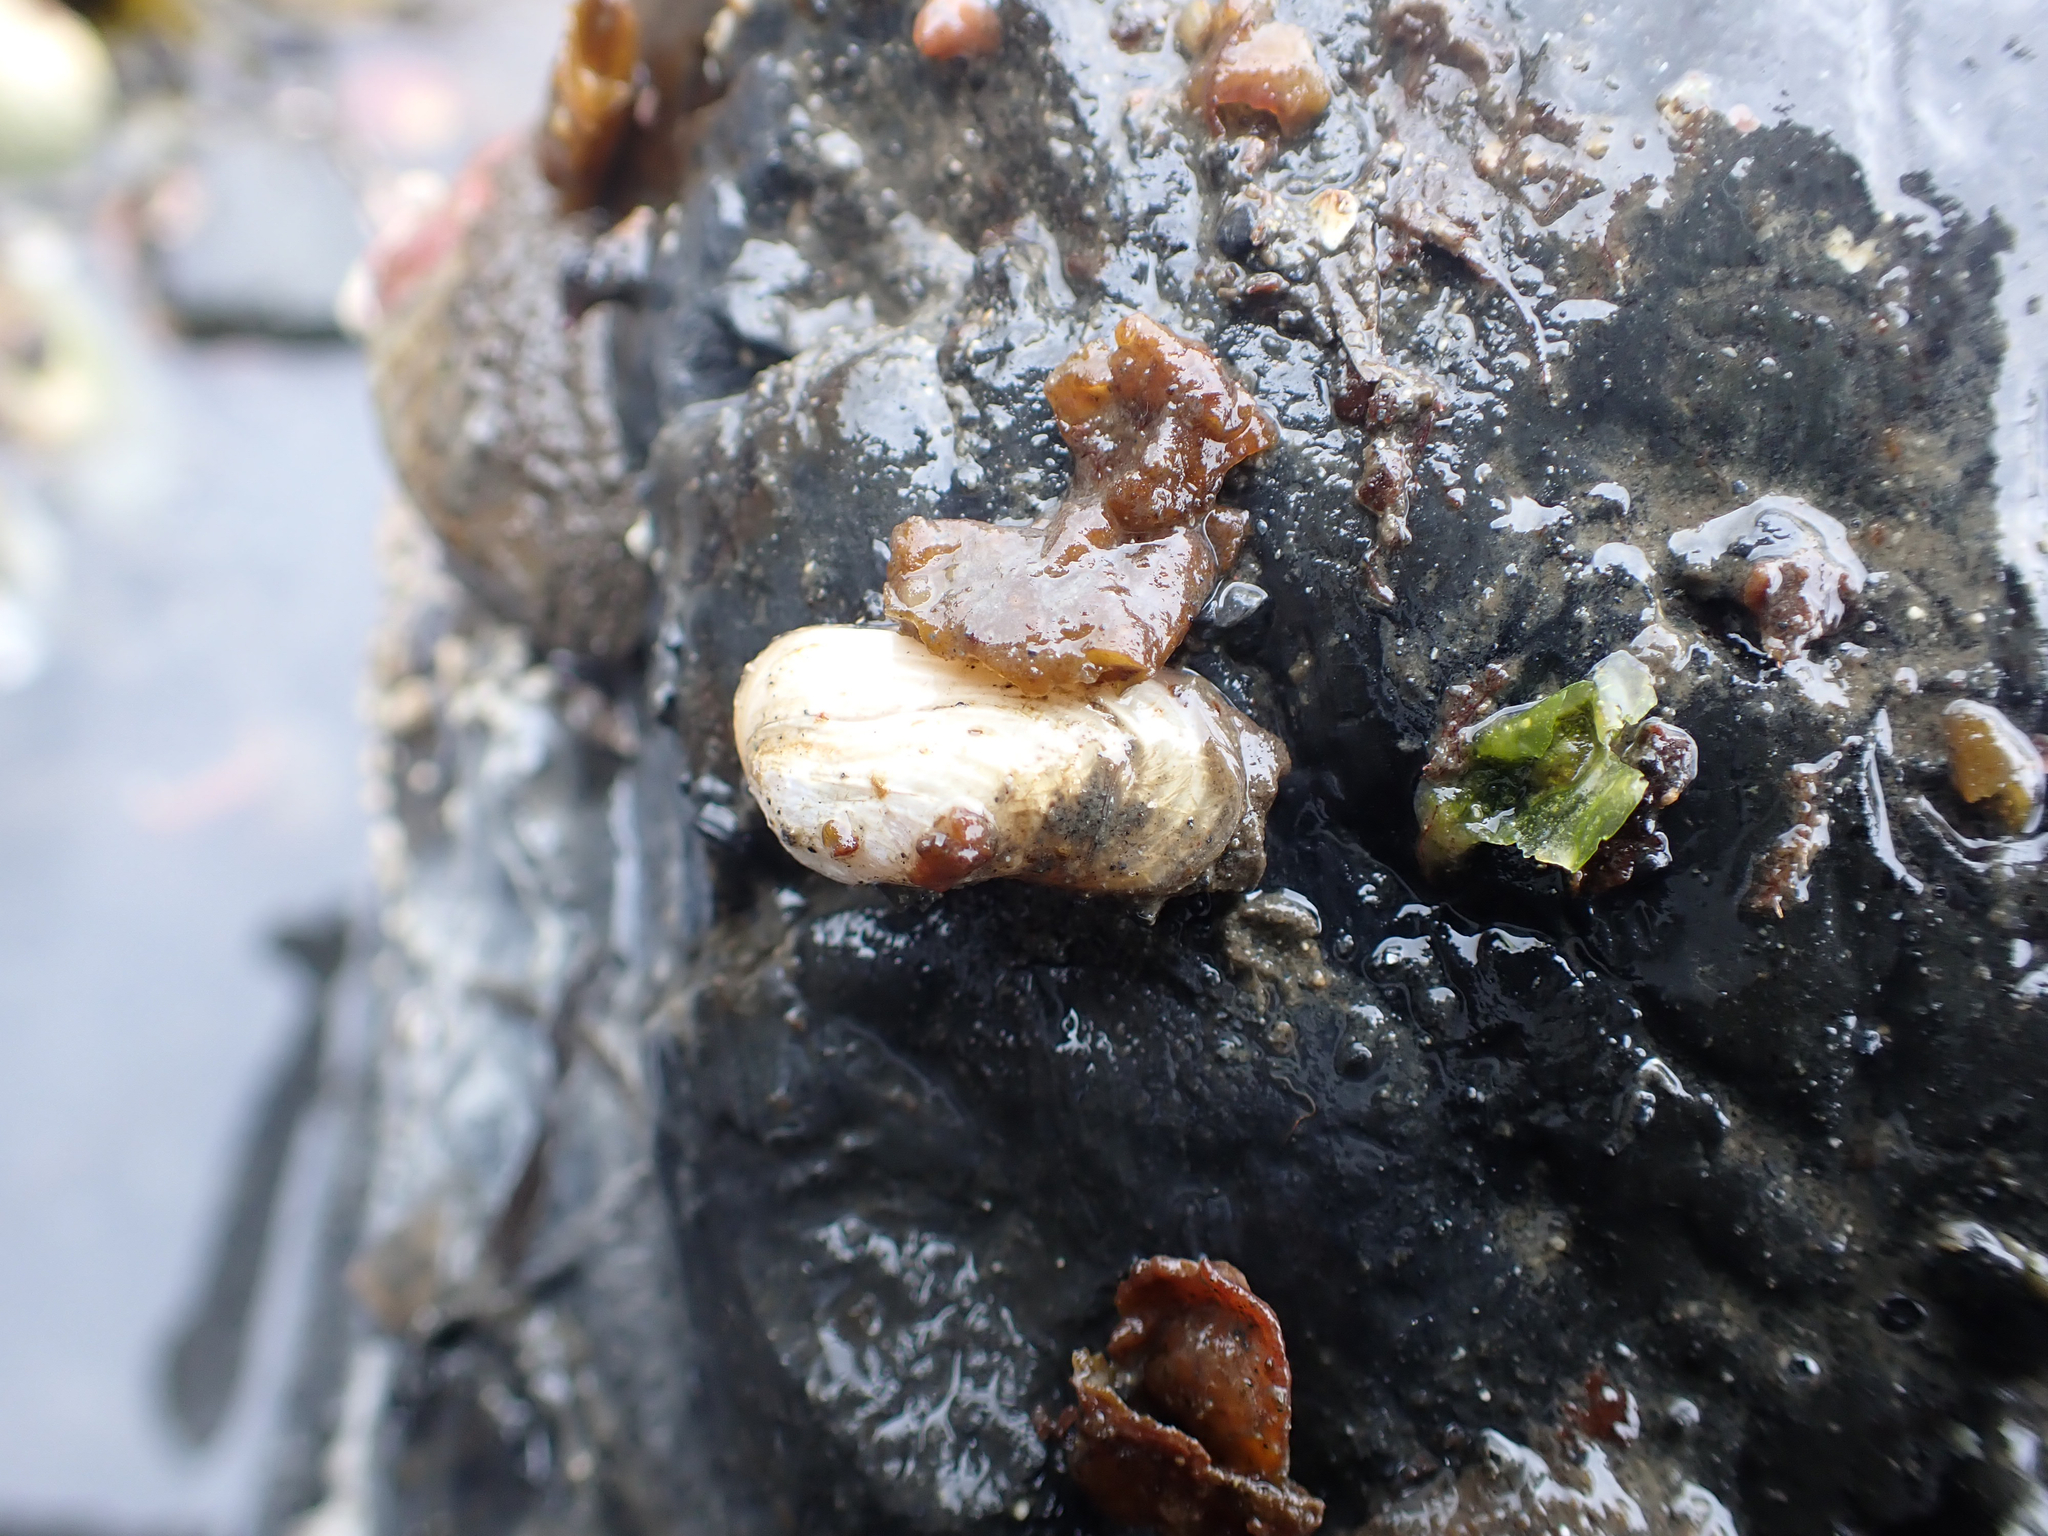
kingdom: Animalia
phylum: Mollusca
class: Bivalvia
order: Adapedonta
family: Hiatellidae
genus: Hiatella
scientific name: Hiatella arctica
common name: Arctic hiatella
